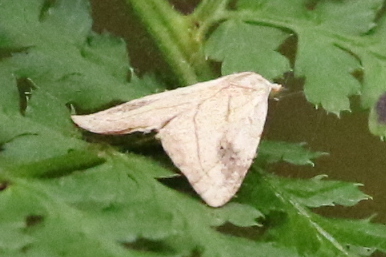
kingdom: Animalia
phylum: Arthropoda
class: Insecta
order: Lepidoptera
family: Erebidae
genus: Rivula
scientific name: Rivula propinqualis
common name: Spotted grass moth
